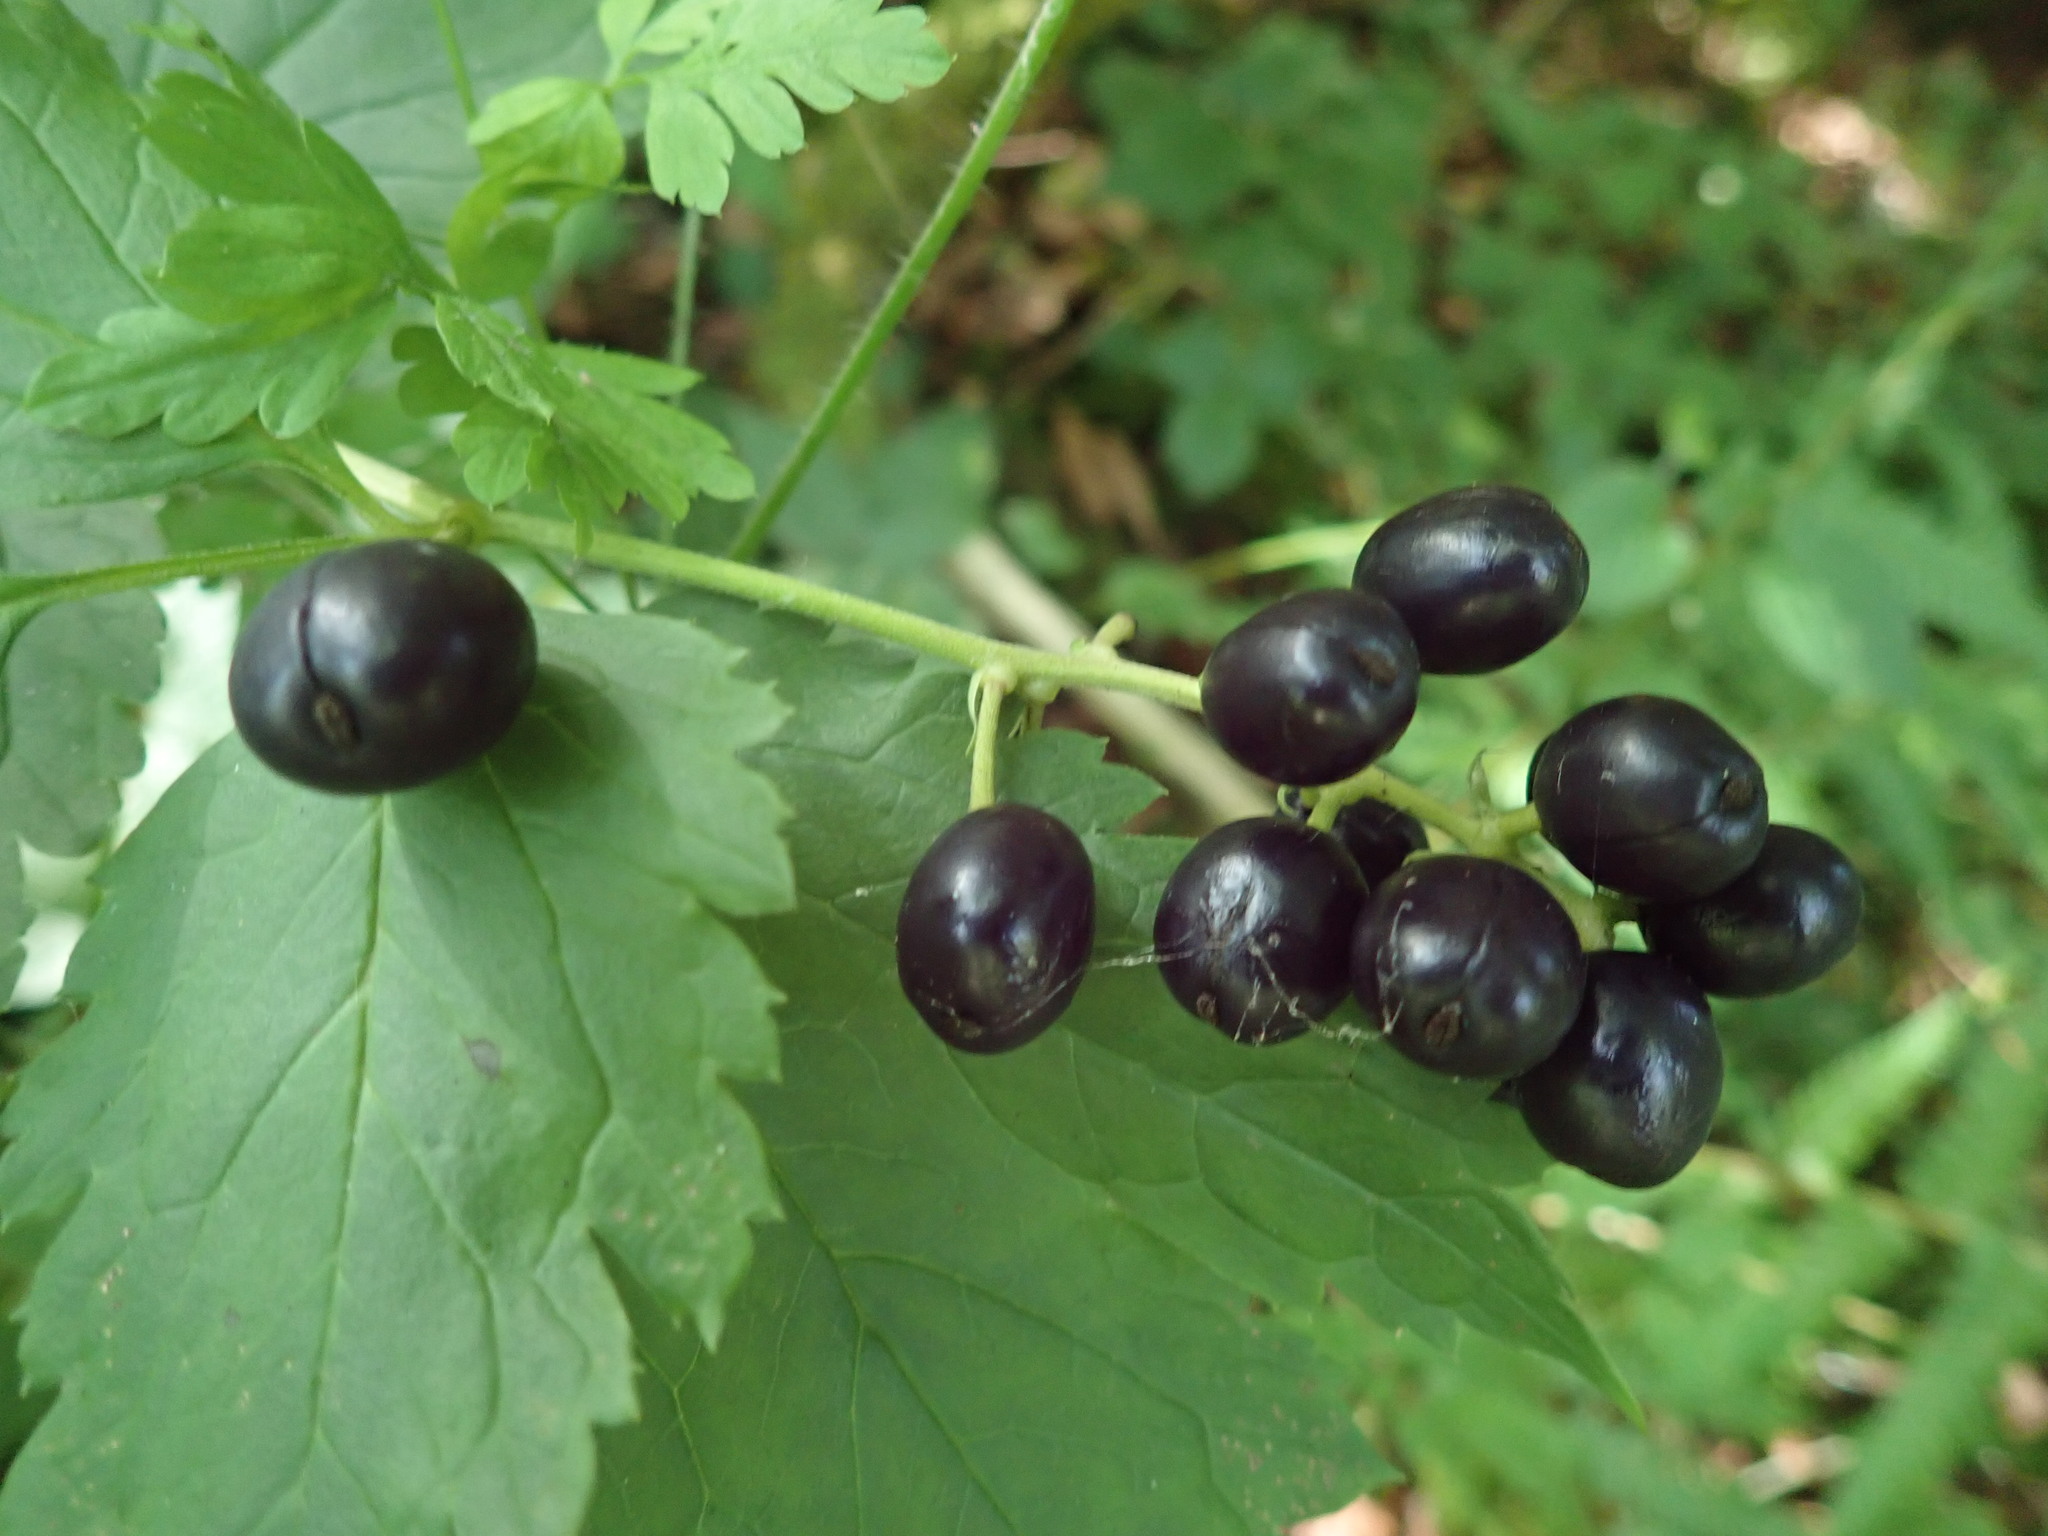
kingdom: Plantae
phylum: Tracheophyta
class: Magnoliopsida
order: Ranunculales
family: Ranunculaceae
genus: Actaea
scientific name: Actaea spicata
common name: Baneberry
